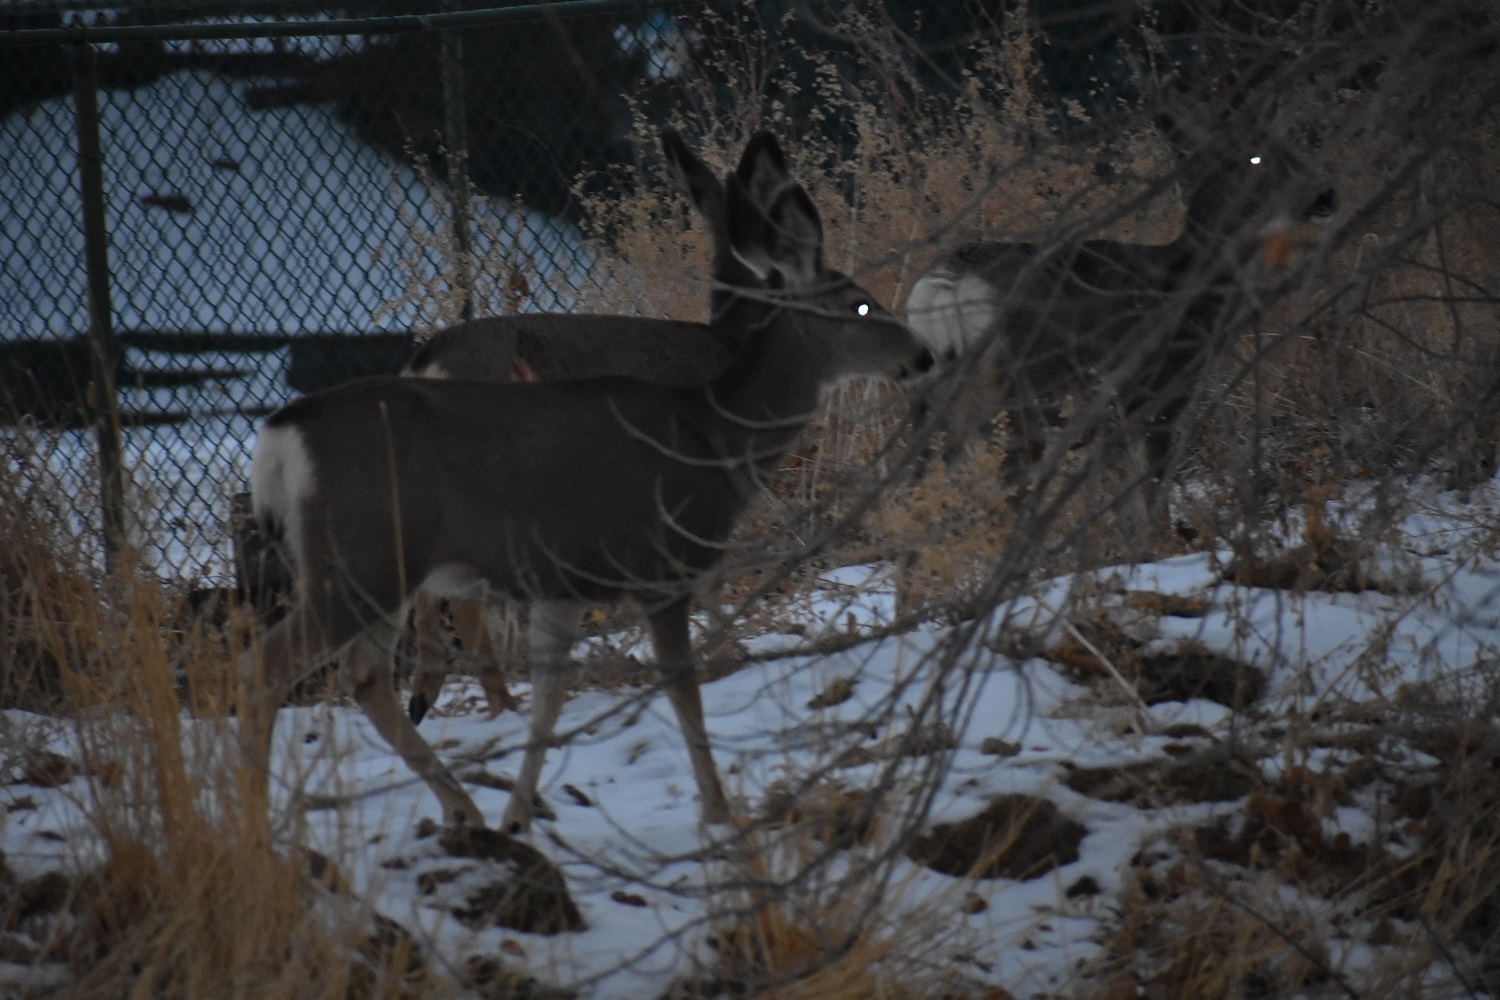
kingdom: Animalia
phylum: Chordata
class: Mammalia
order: Artiodactyla
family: Cervidae
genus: Odocoileus
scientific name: Odocoileus hemionus
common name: Mule deer
